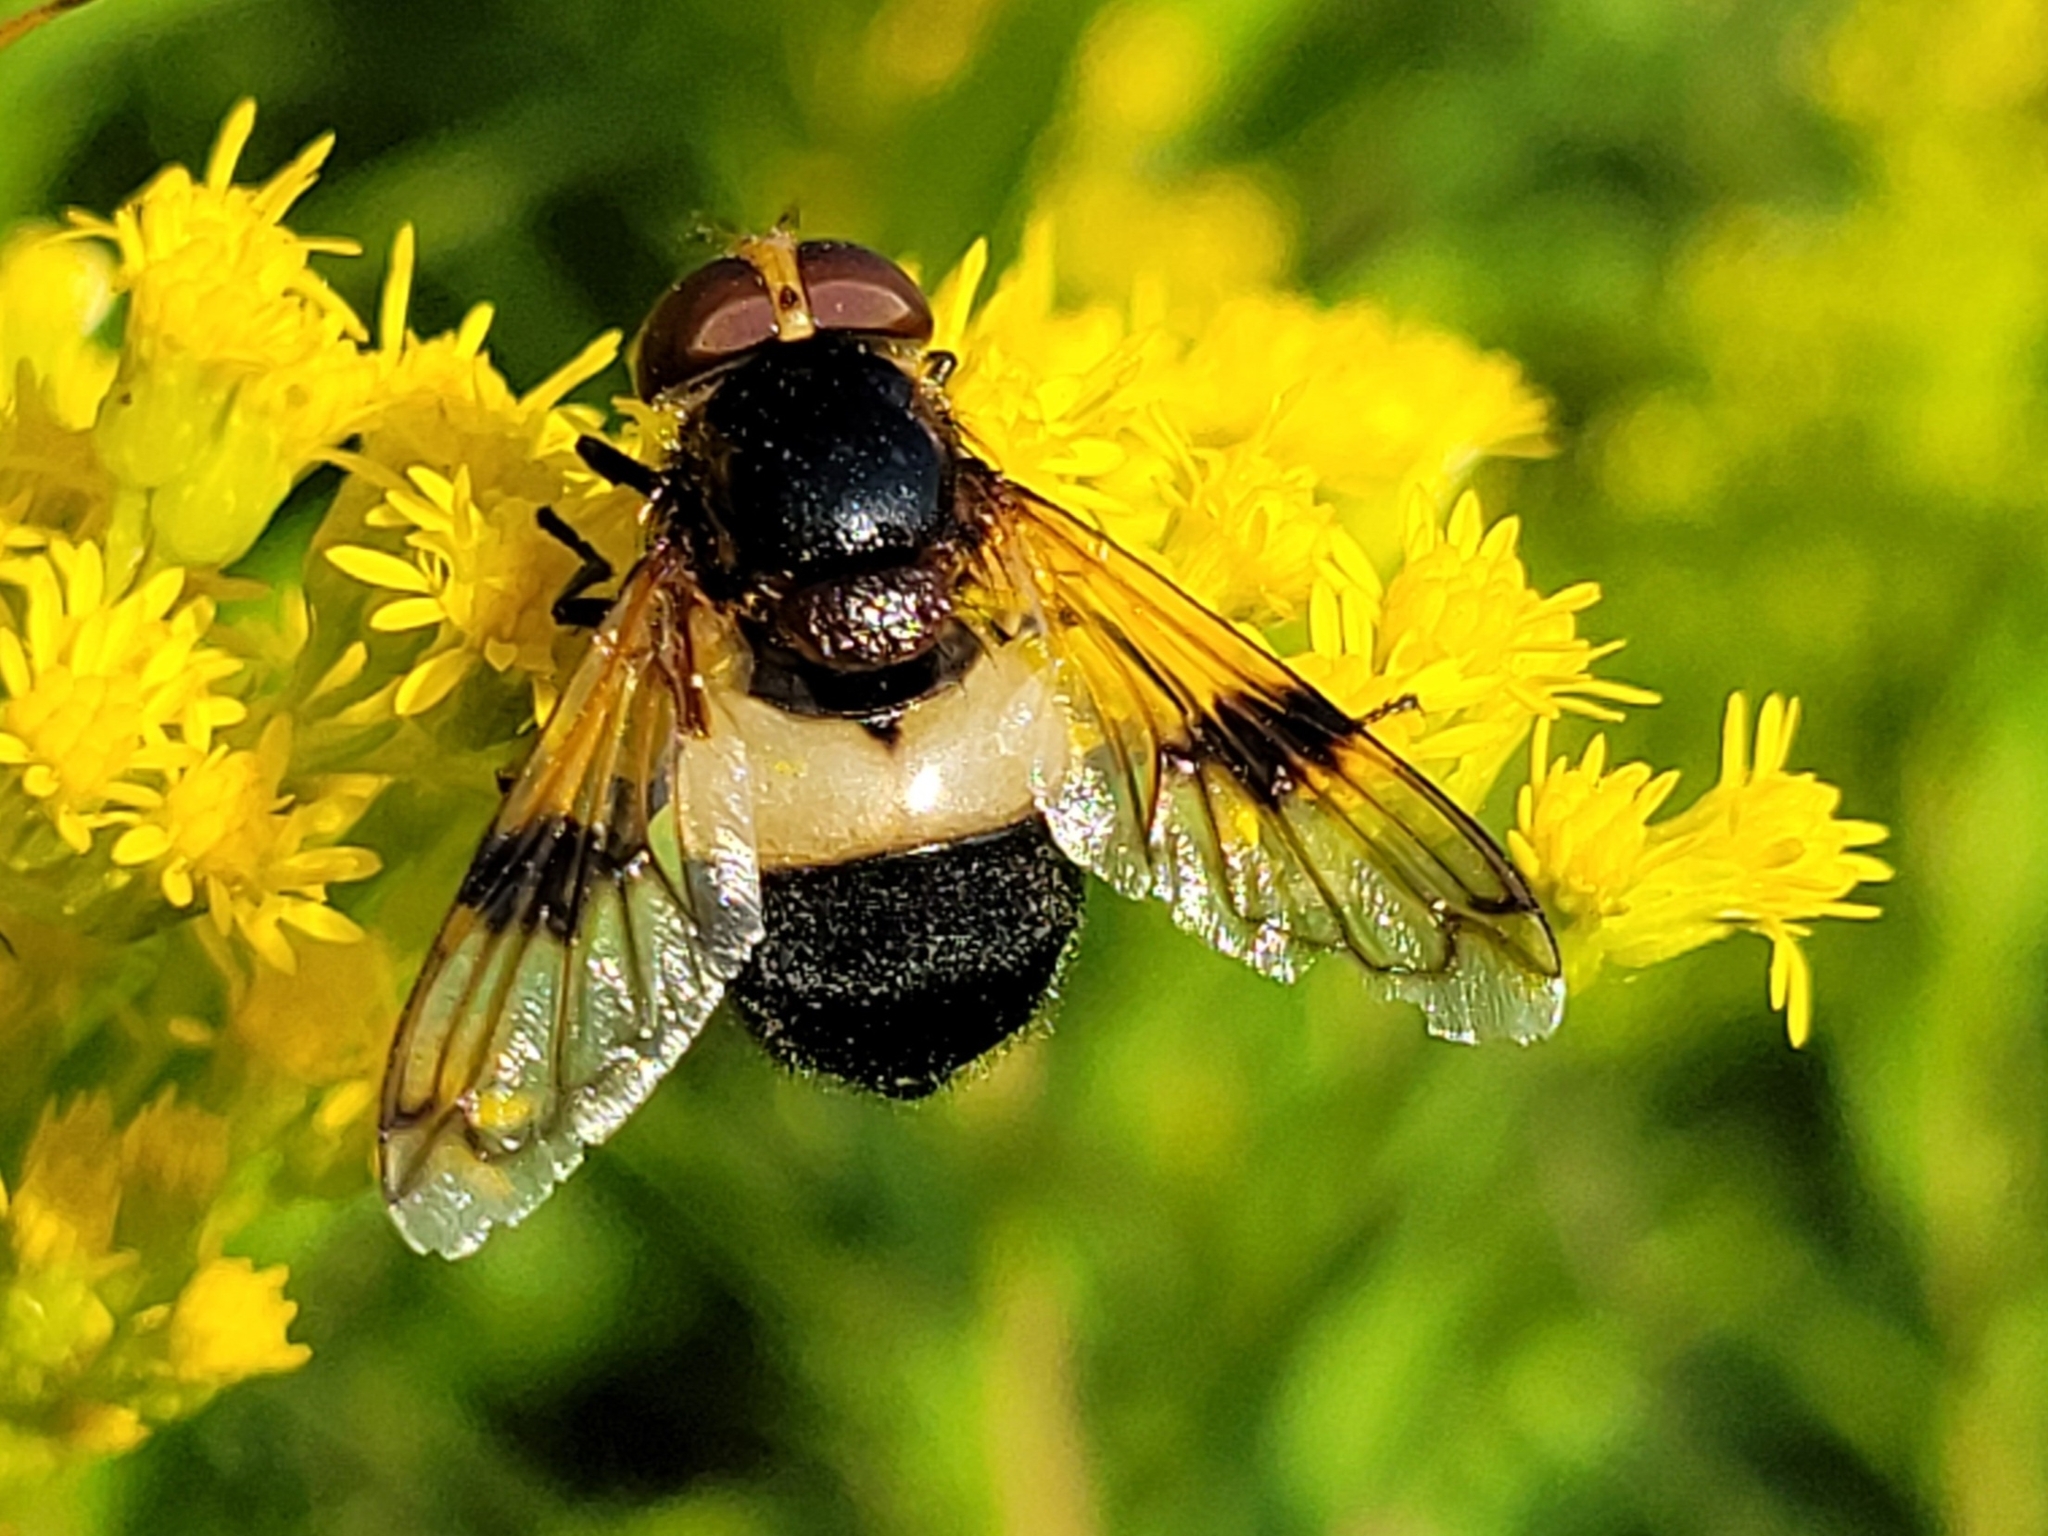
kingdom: Animalia
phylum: Arthropoda
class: Insecta
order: Diptera
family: Syrphidae
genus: Volucella
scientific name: Volucella pellucens
